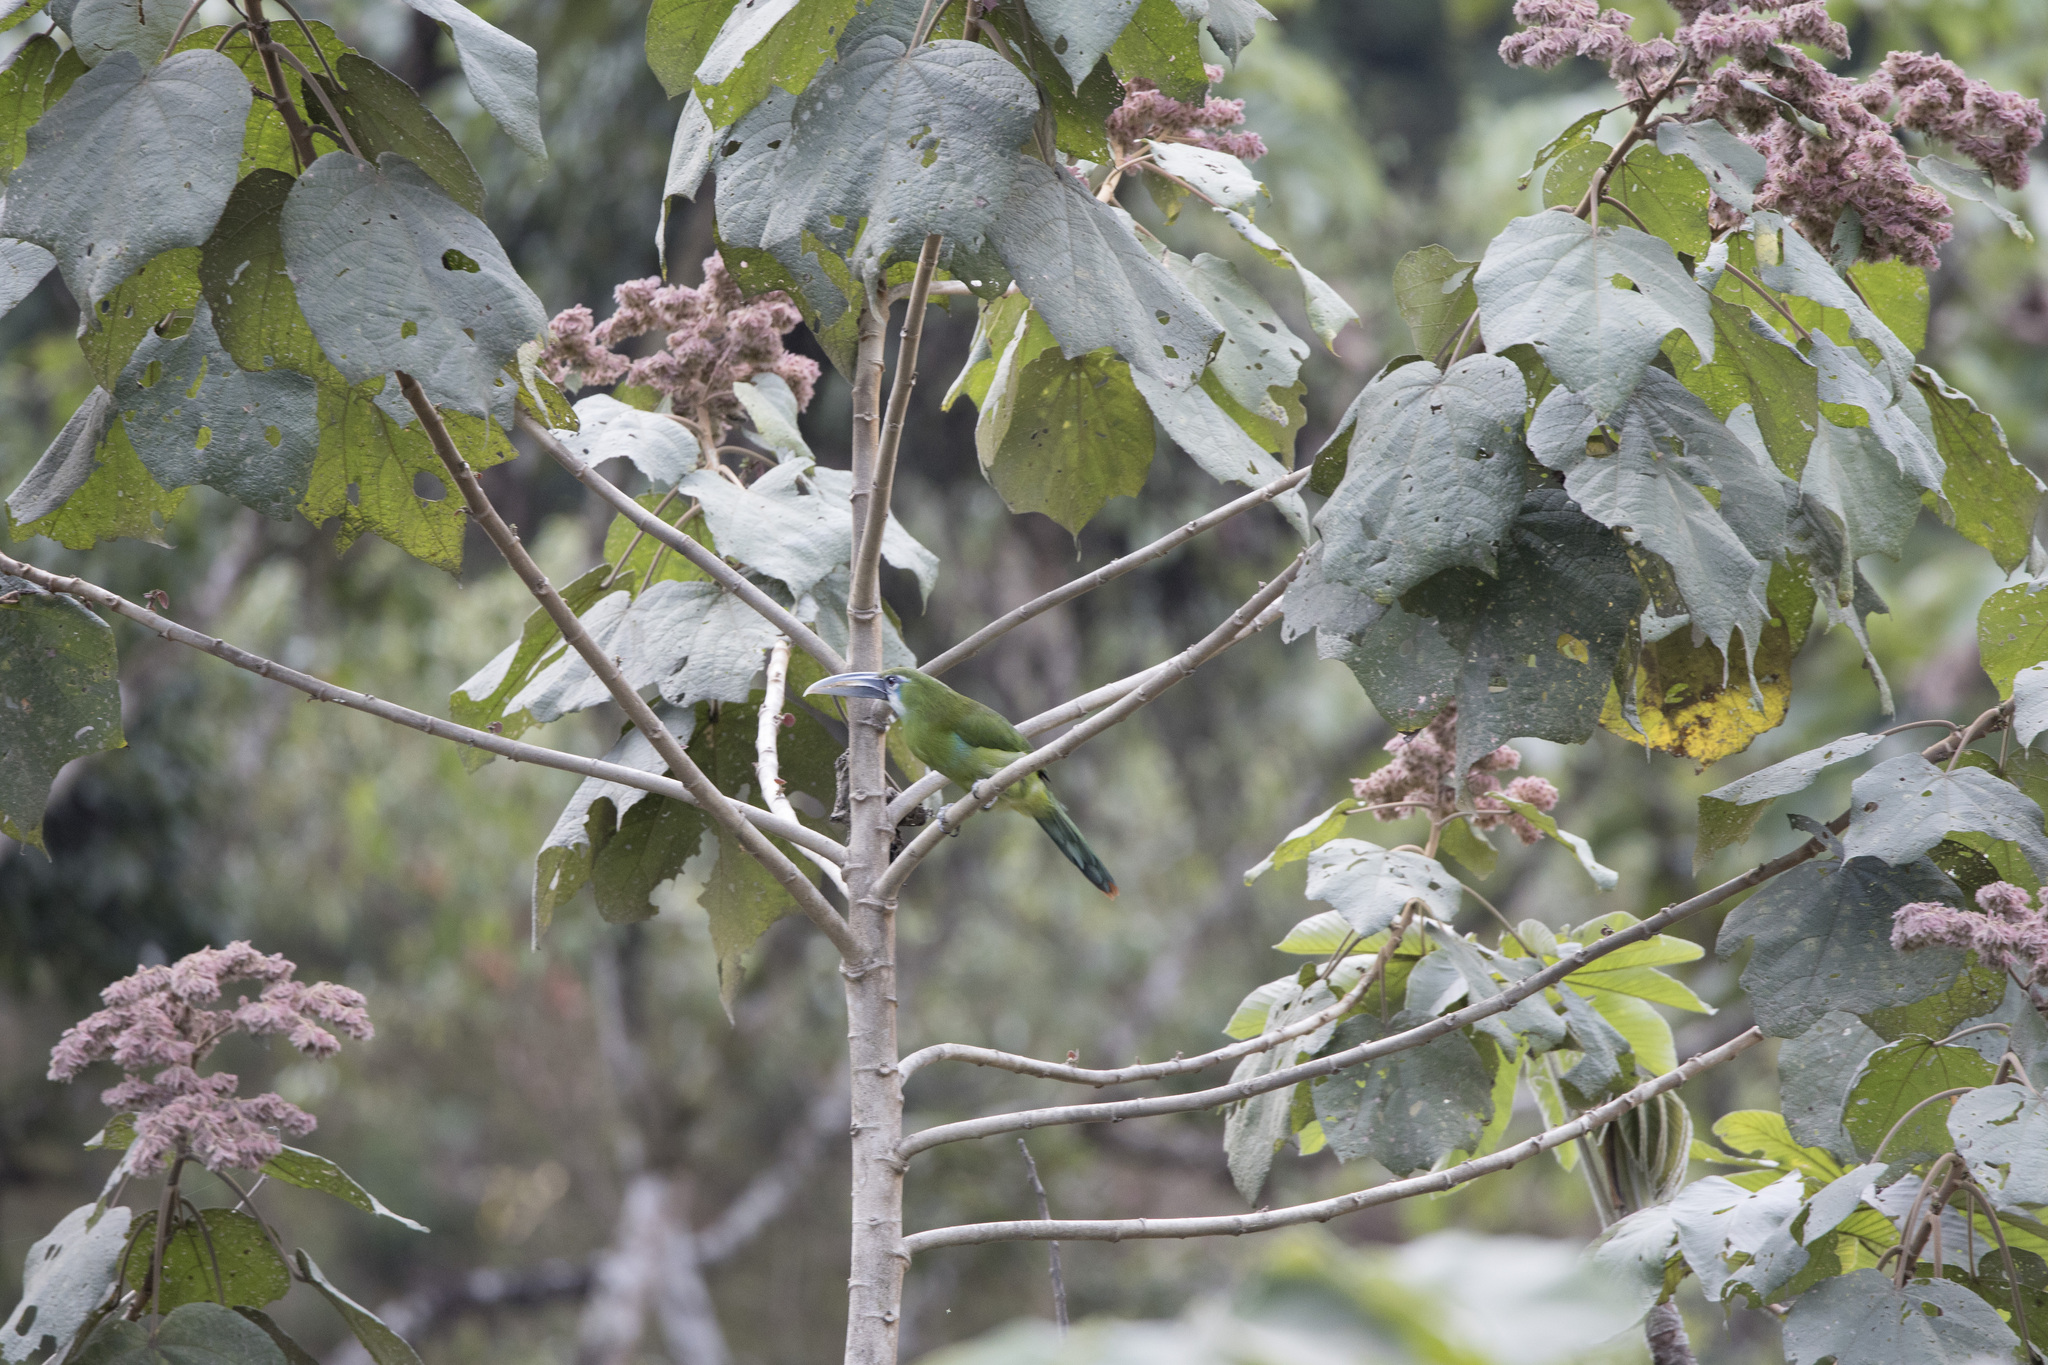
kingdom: Animalia
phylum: Chordata
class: Aves
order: Piciformes
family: Ramphastidae
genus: Aulacorhynchus
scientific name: Aulacorhynchus coeruleicinctis
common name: Blue-banded toucanet
